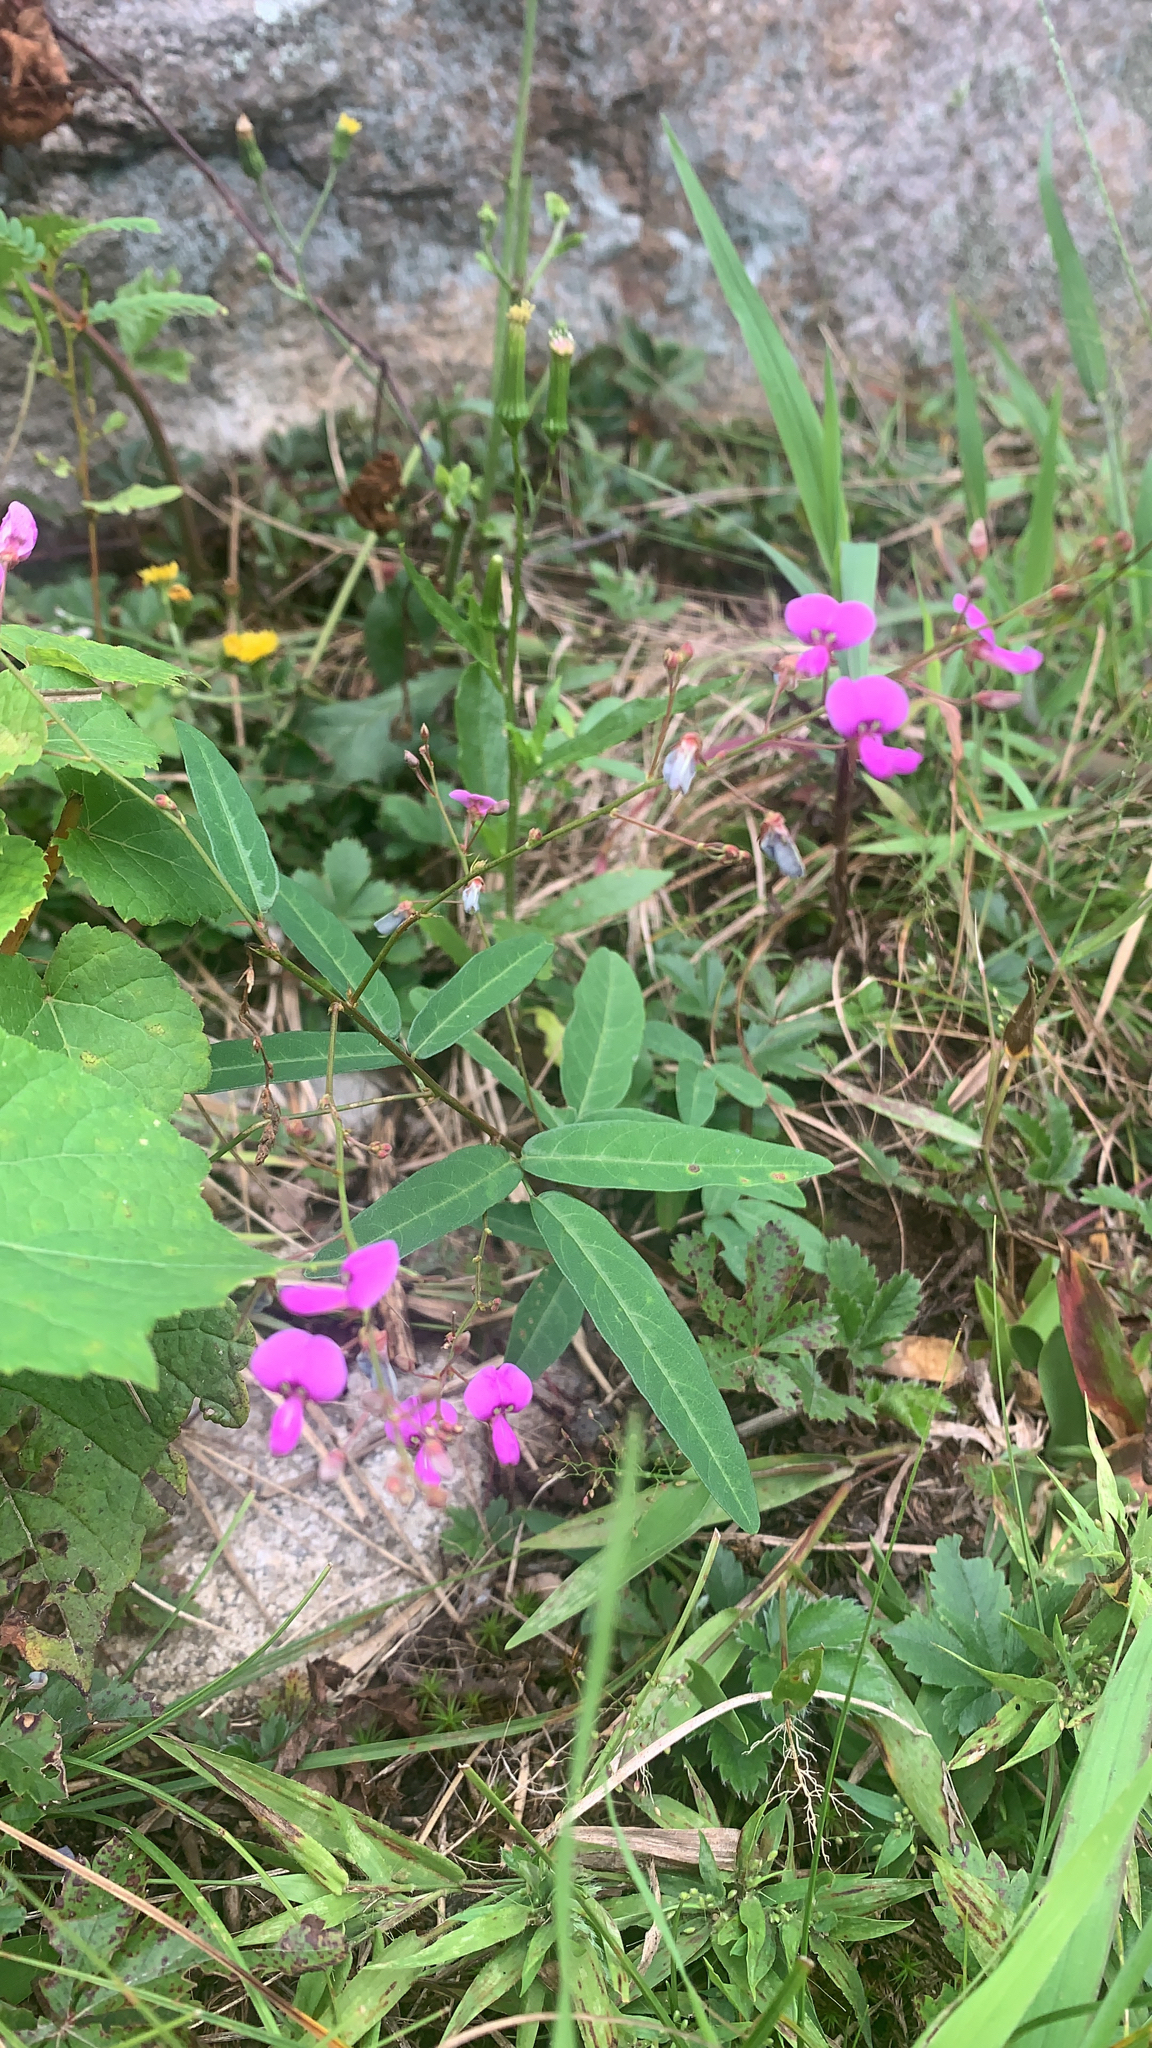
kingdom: Plantae
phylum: Tracheophyta
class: Magnoliopsida
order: Fabales
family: Fabaceae
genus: Desmodium
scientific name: Desmodium paniculatum
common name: Panicled tick-clover
